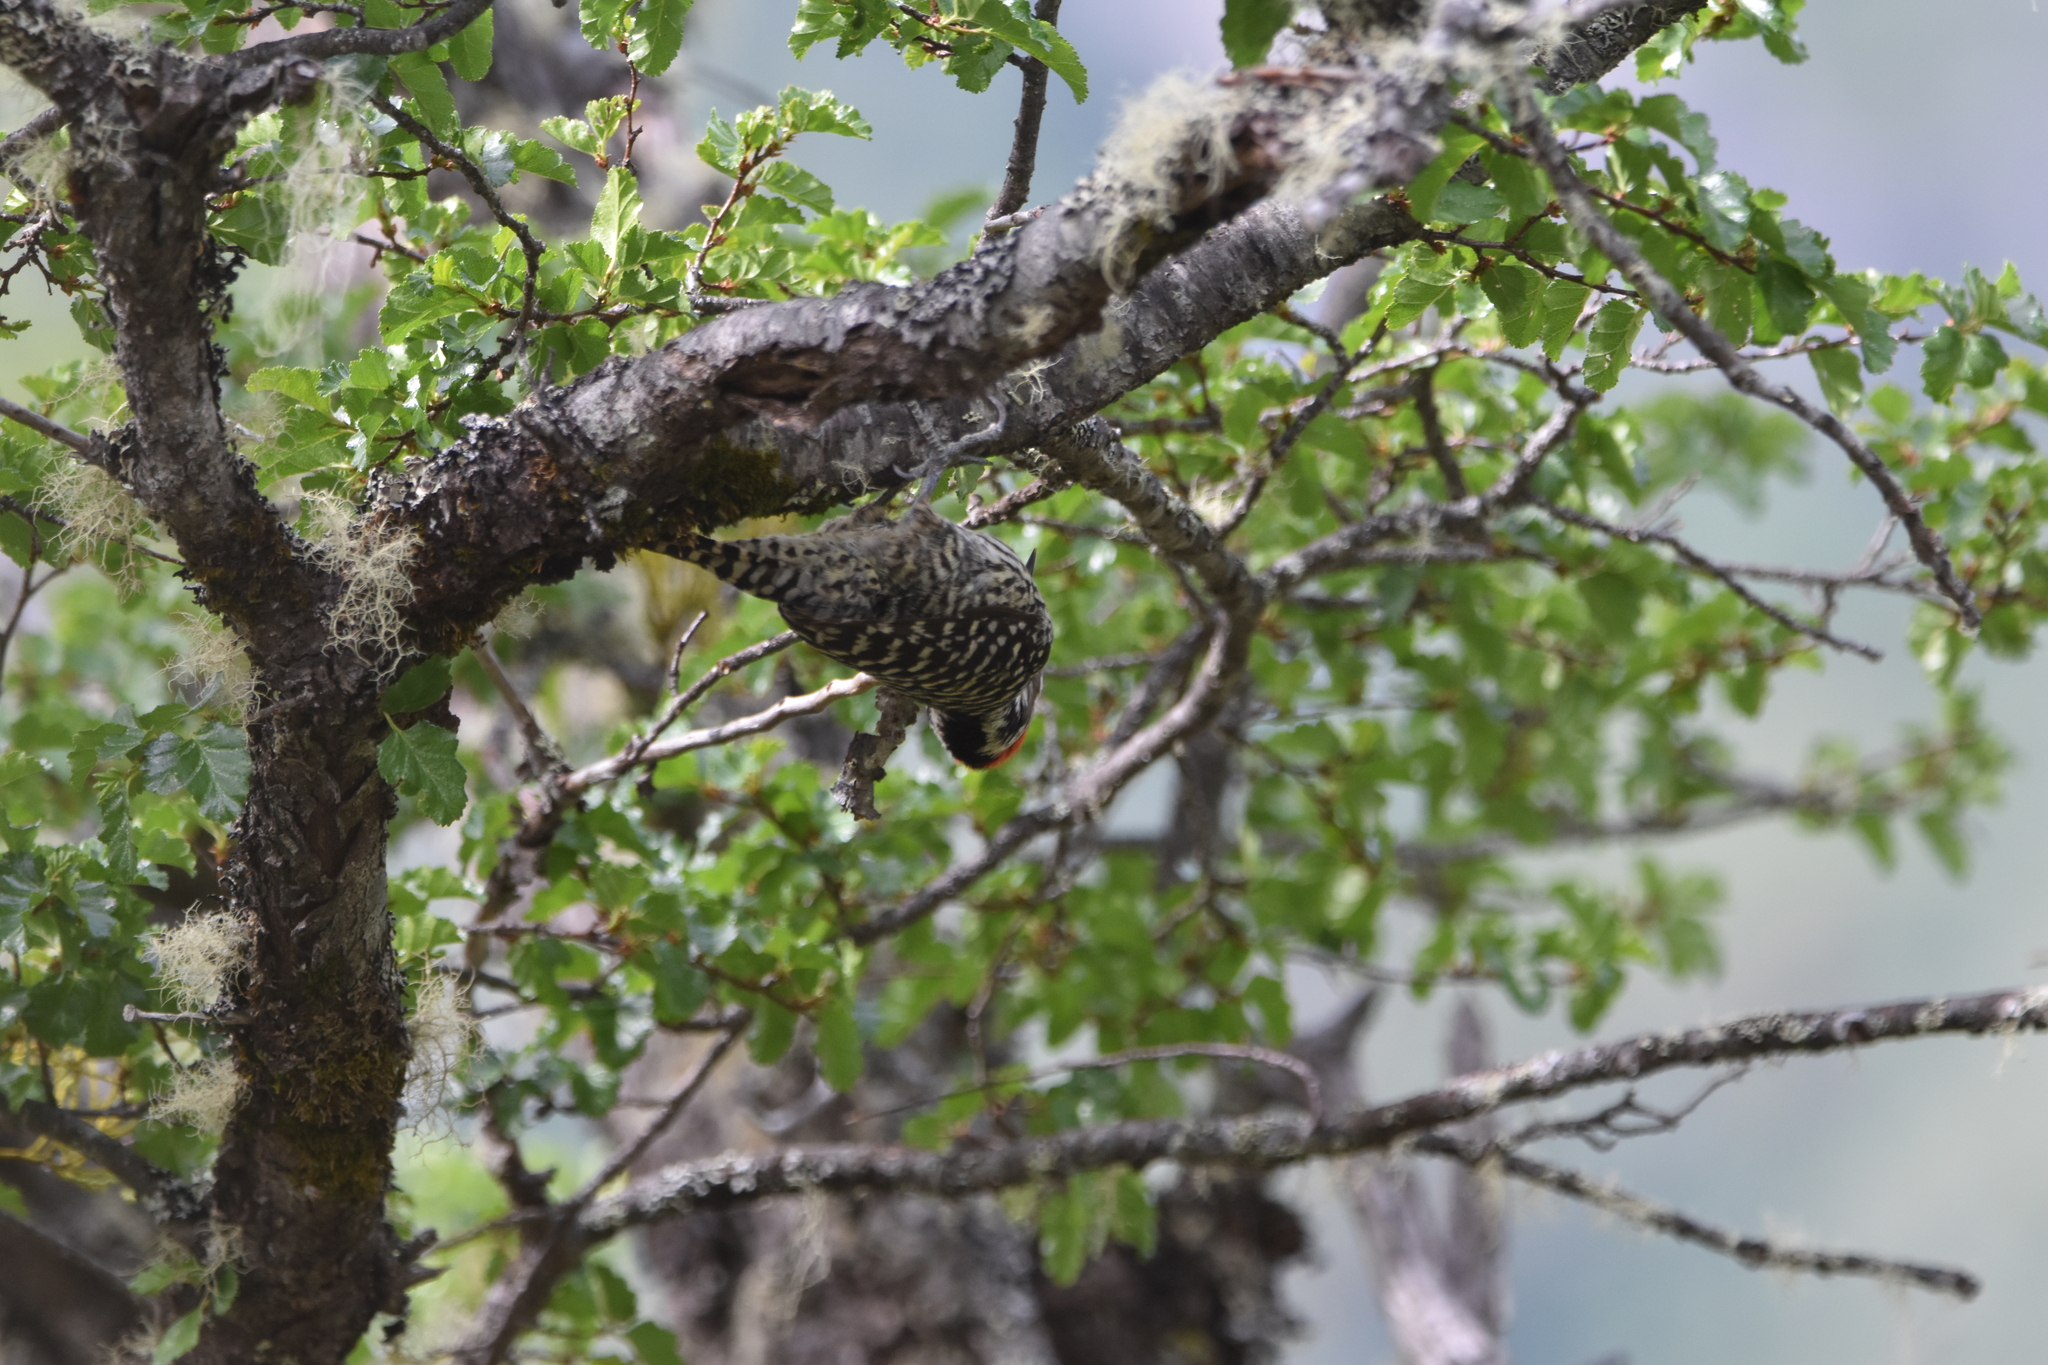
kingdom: Animalia
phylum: Chordata
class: Aves
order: Piciformes
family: Picidae
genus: Veniliornis
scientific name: Veniliornis lignarius
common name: Striped woodpecker
